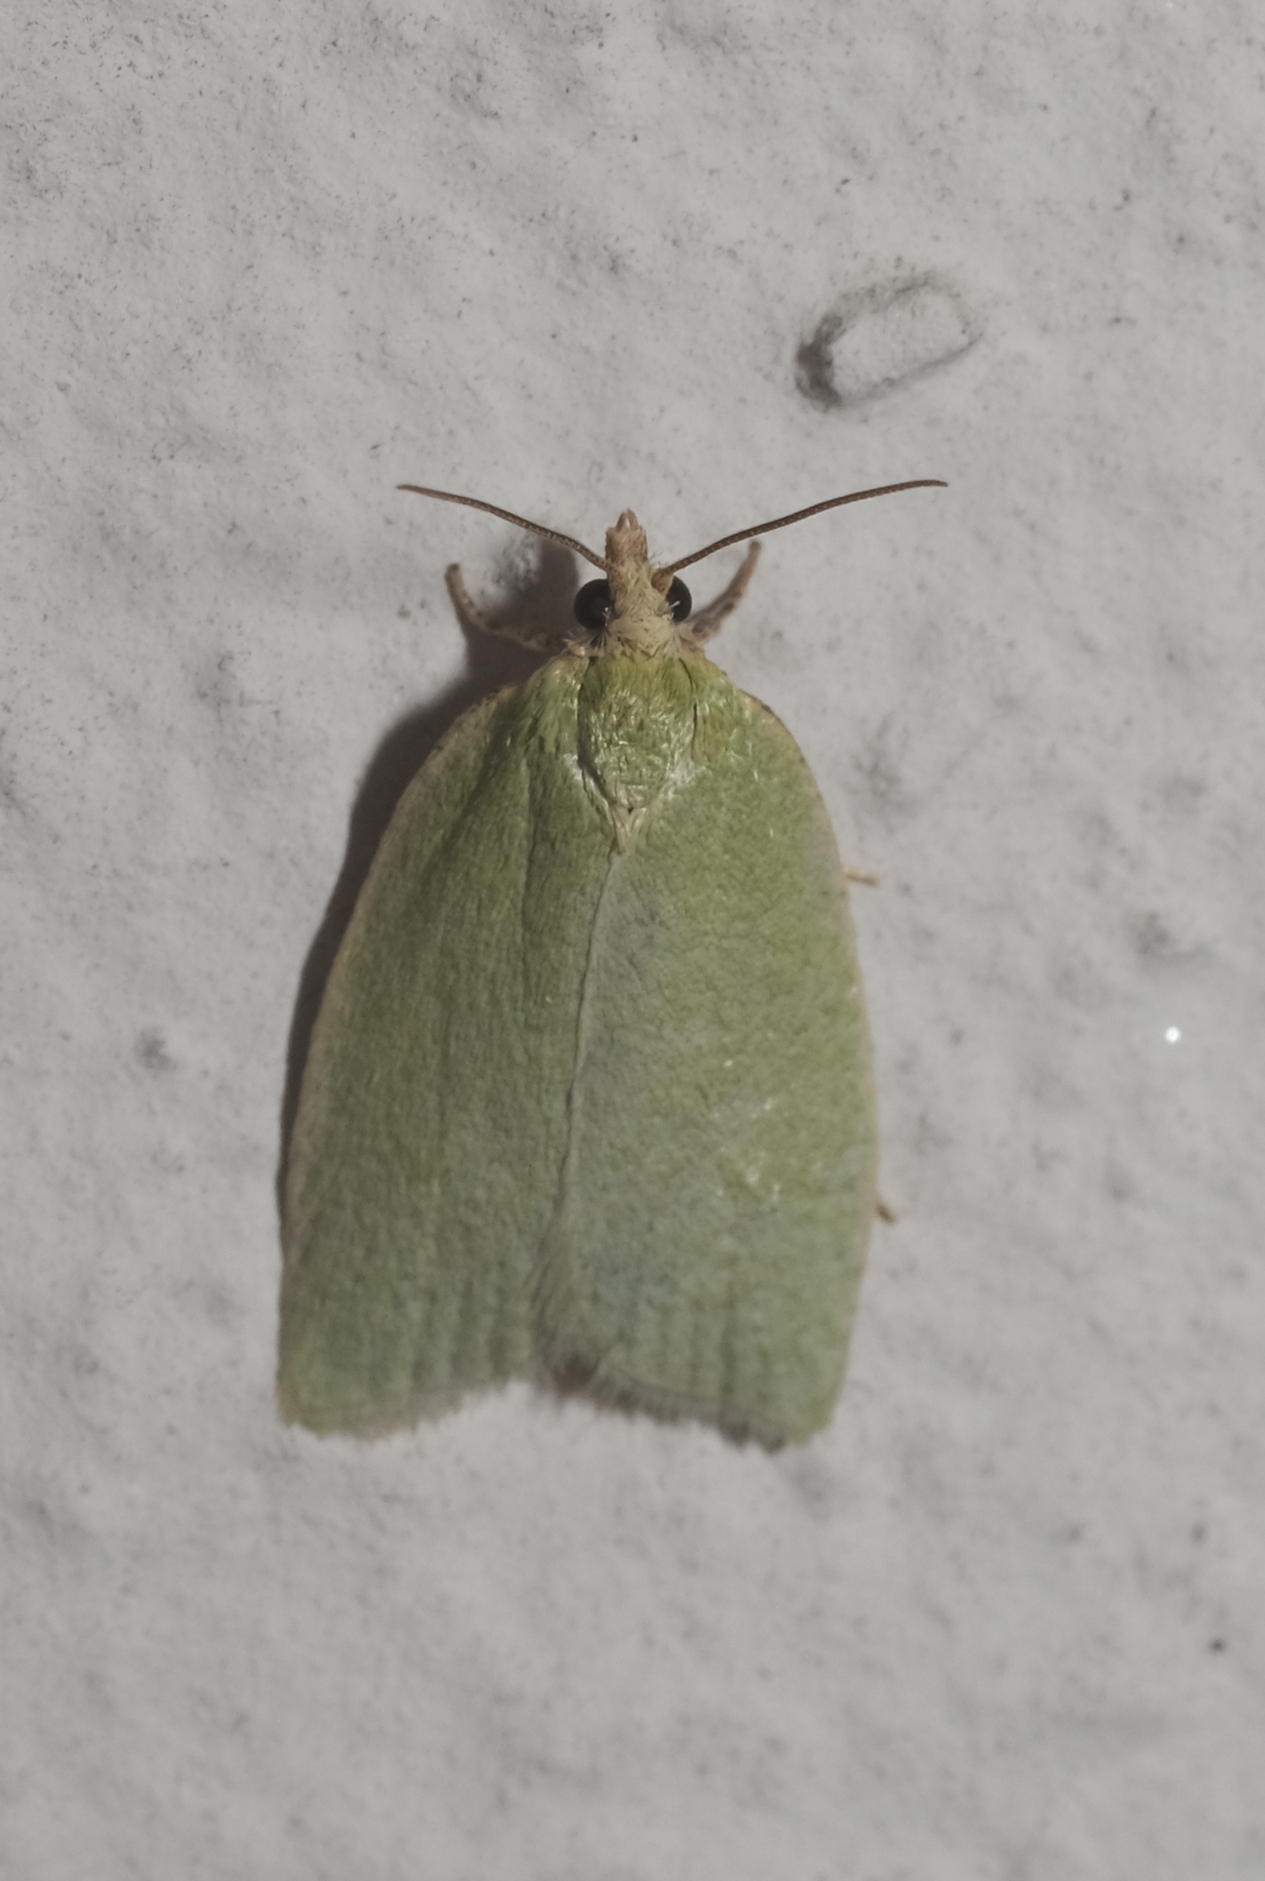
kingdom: Animalia
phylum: Arthropoda
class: Insecta
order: Lepidoptera
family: Tortricidae
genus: Tortrix
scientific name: Tortrix viridana
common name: Green oak tortrix
